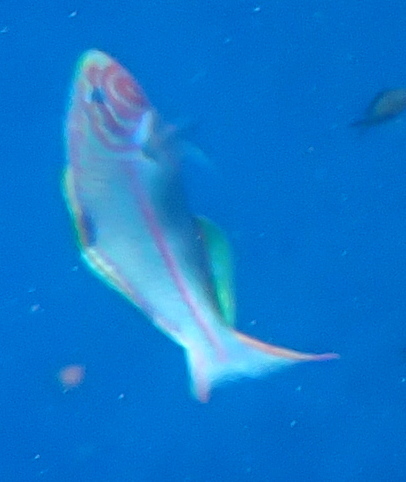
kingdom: Animalia
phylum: Chordata
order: Perciformes
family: Labridae
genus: Thalassoma
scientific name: Thalassoma rueppellii
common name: Klunzinger's wrasse
